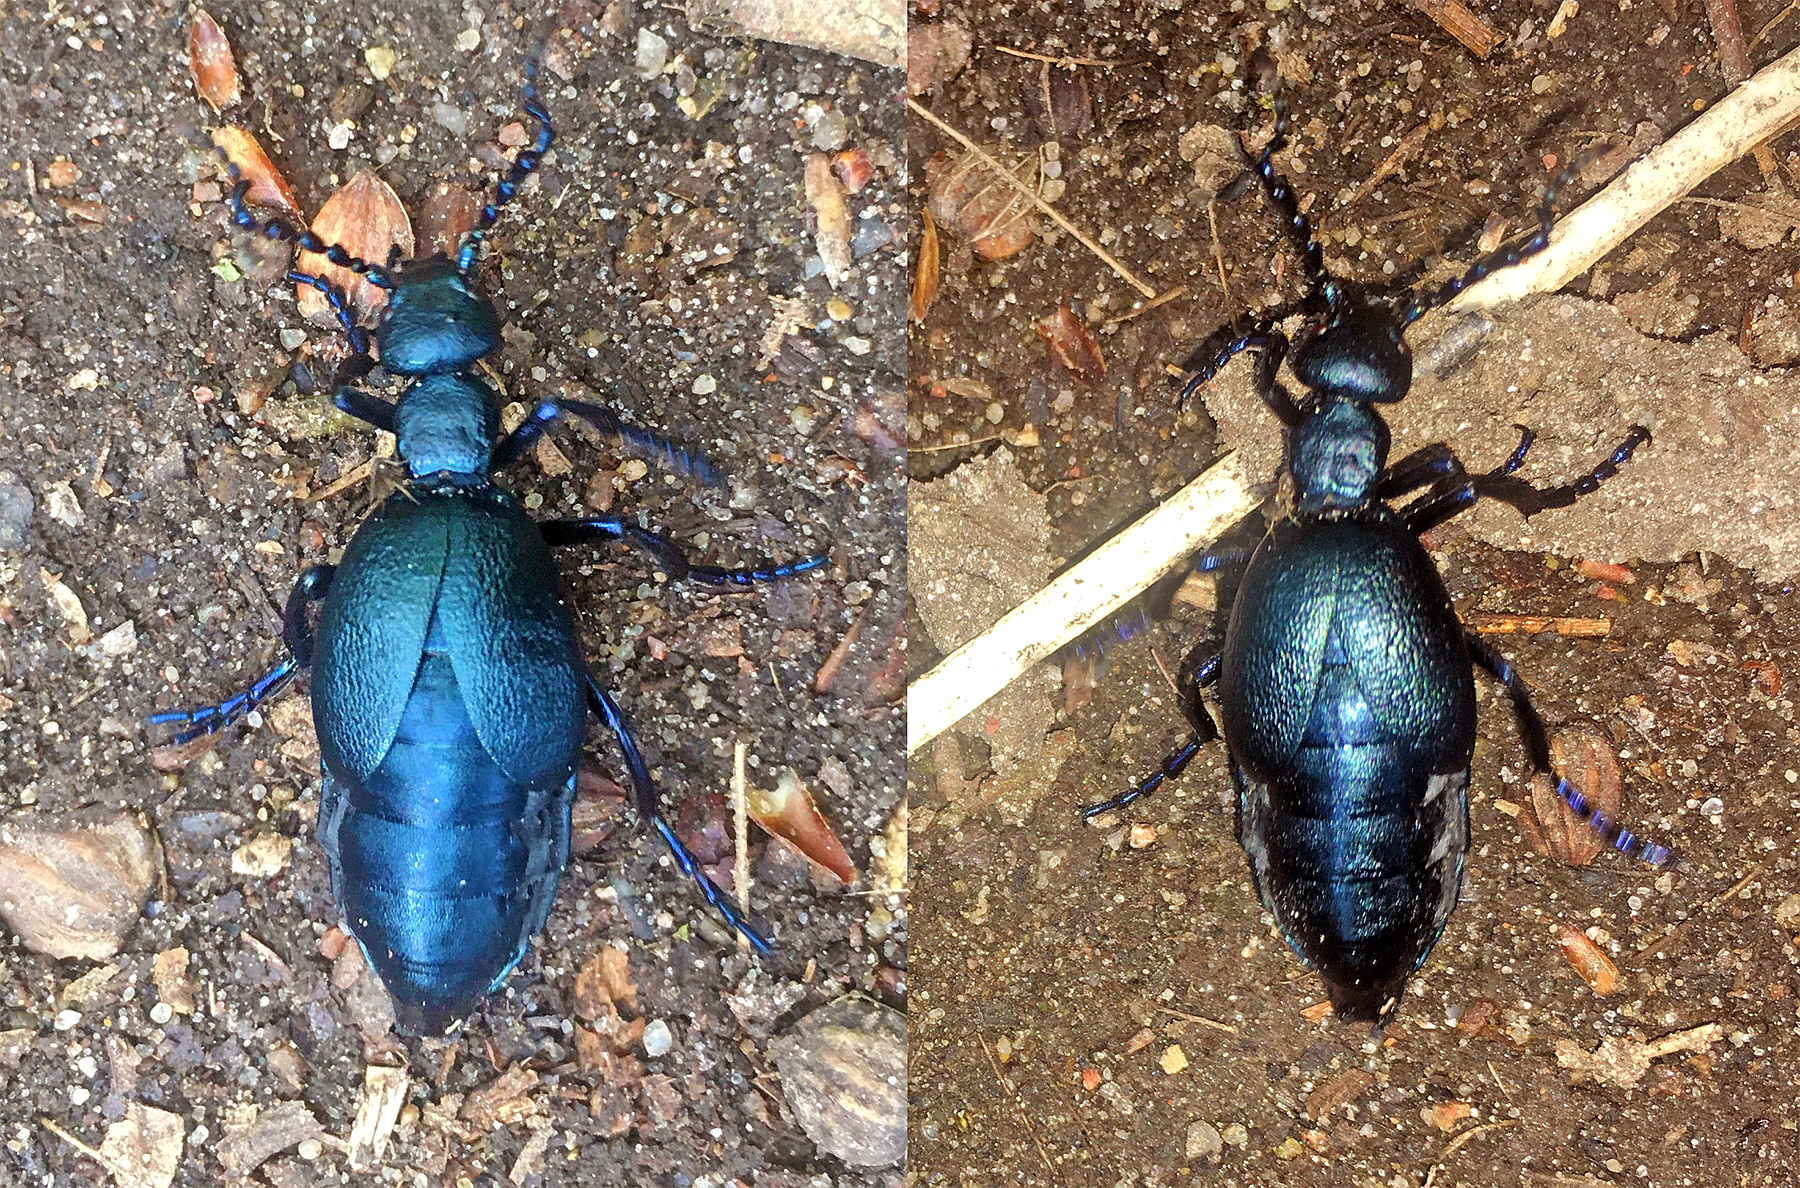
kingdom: Animalia
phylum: Arthropoda
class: Insecta
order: Coleoptera
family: Meloidae
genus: Meloe
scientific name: Meloe violaceus
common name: Violet oil-beetle
